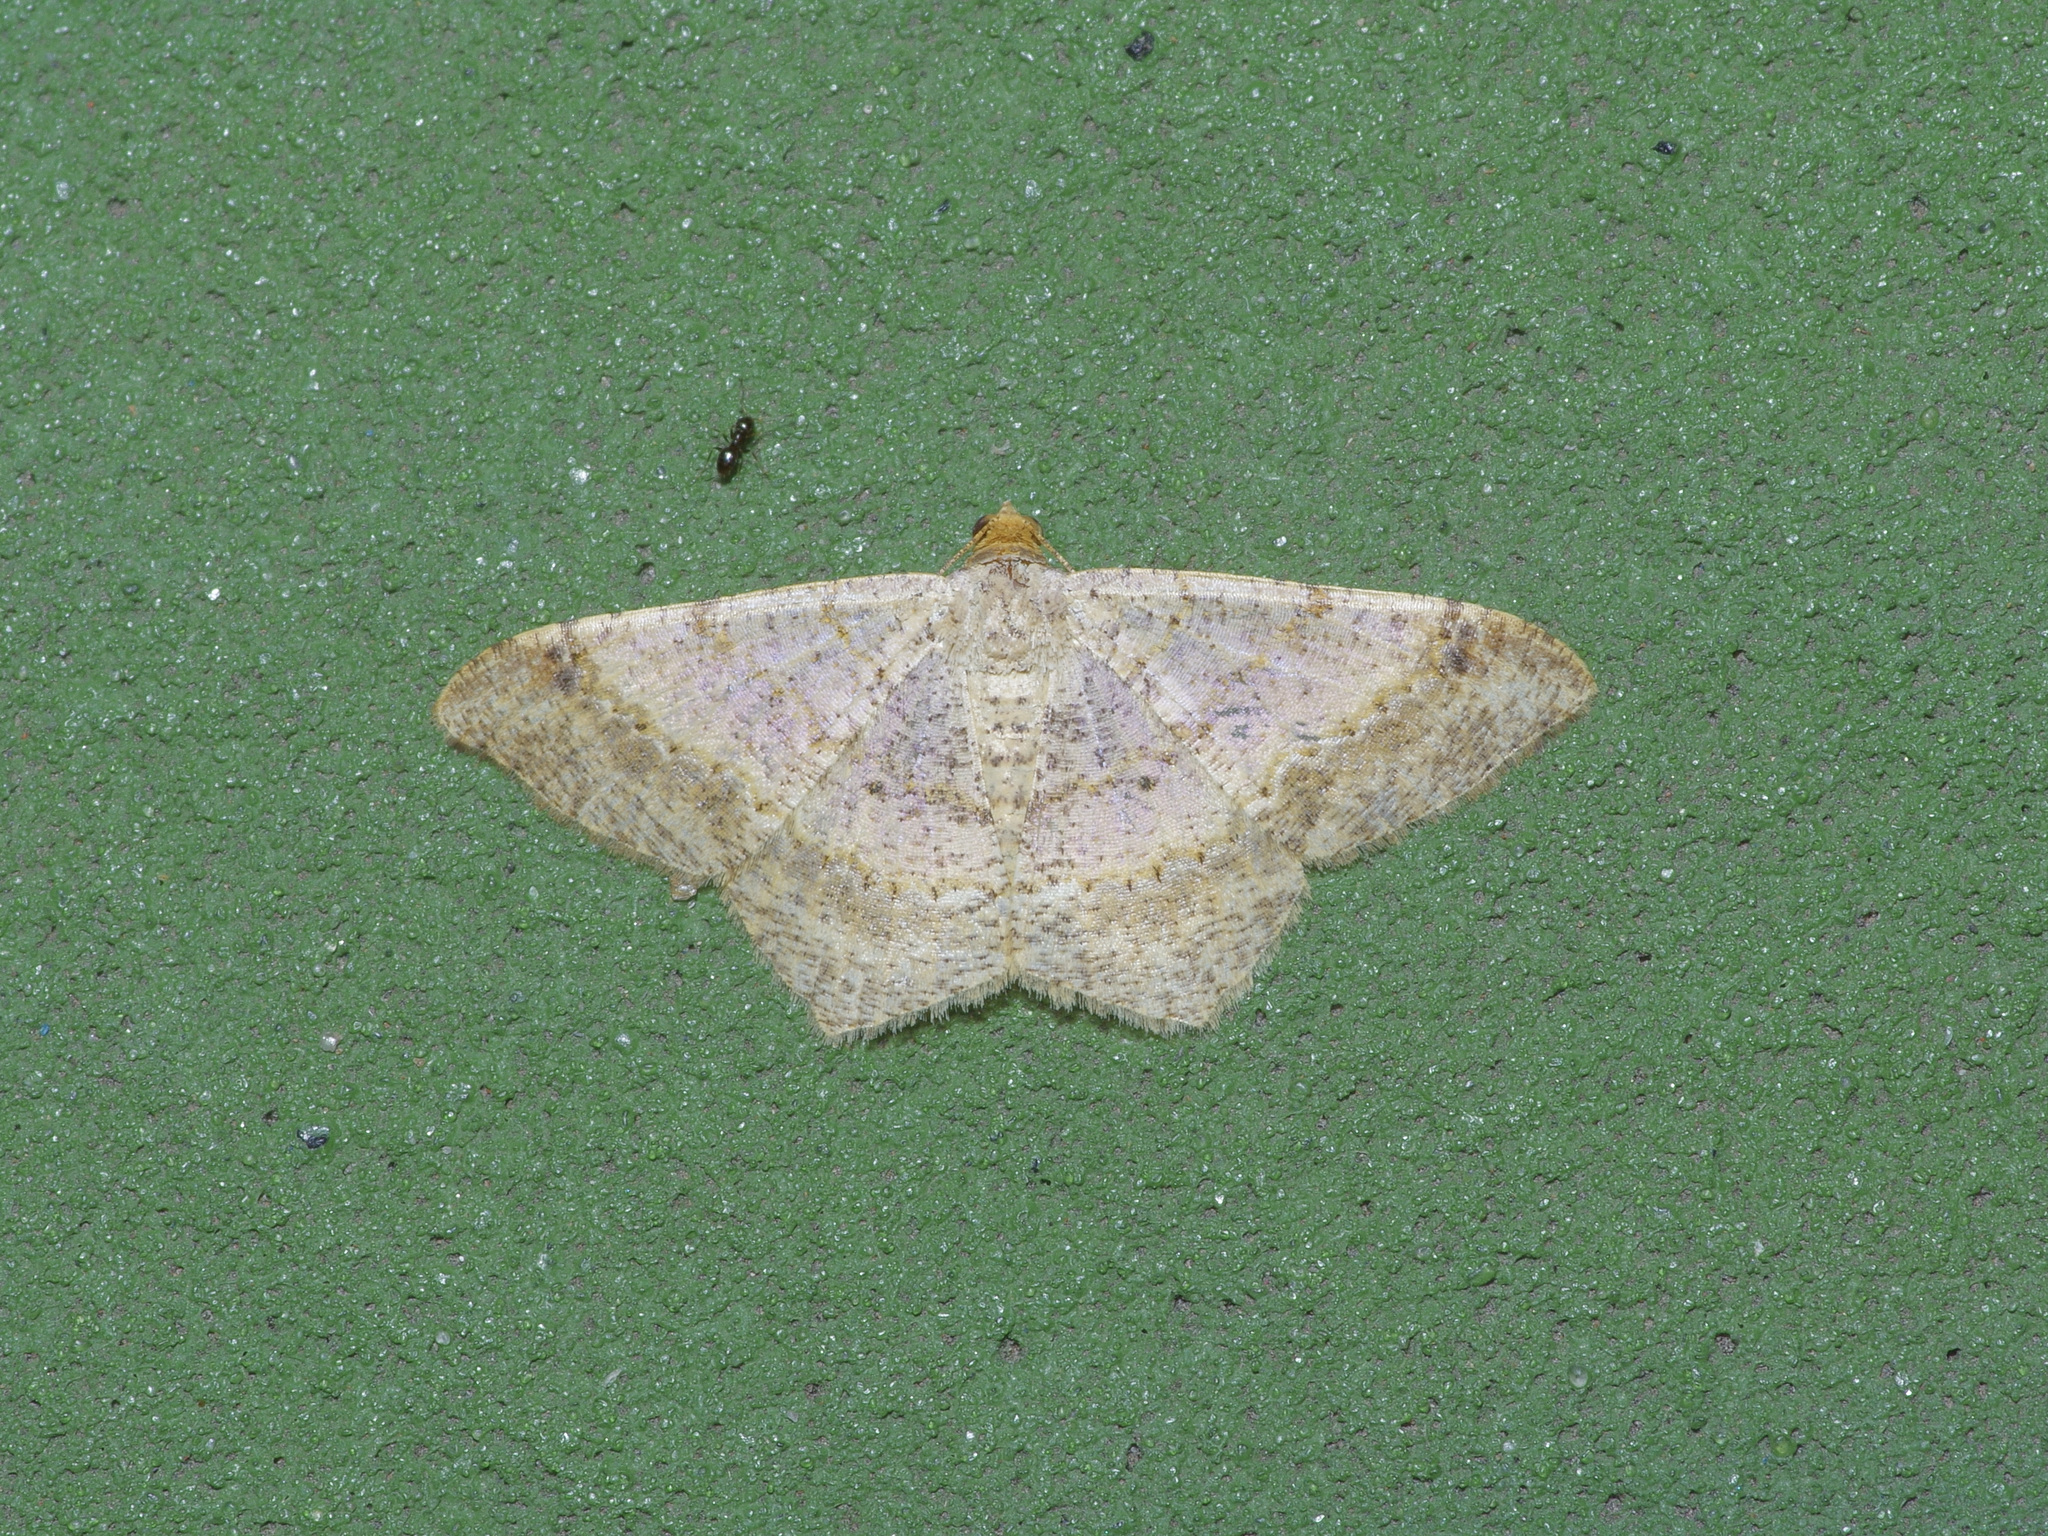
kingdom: Animalia
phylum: Arthropoda
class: Insecta
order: Lepidoptera
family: Geometridae
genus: Macaria
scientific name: Macaria abydata
